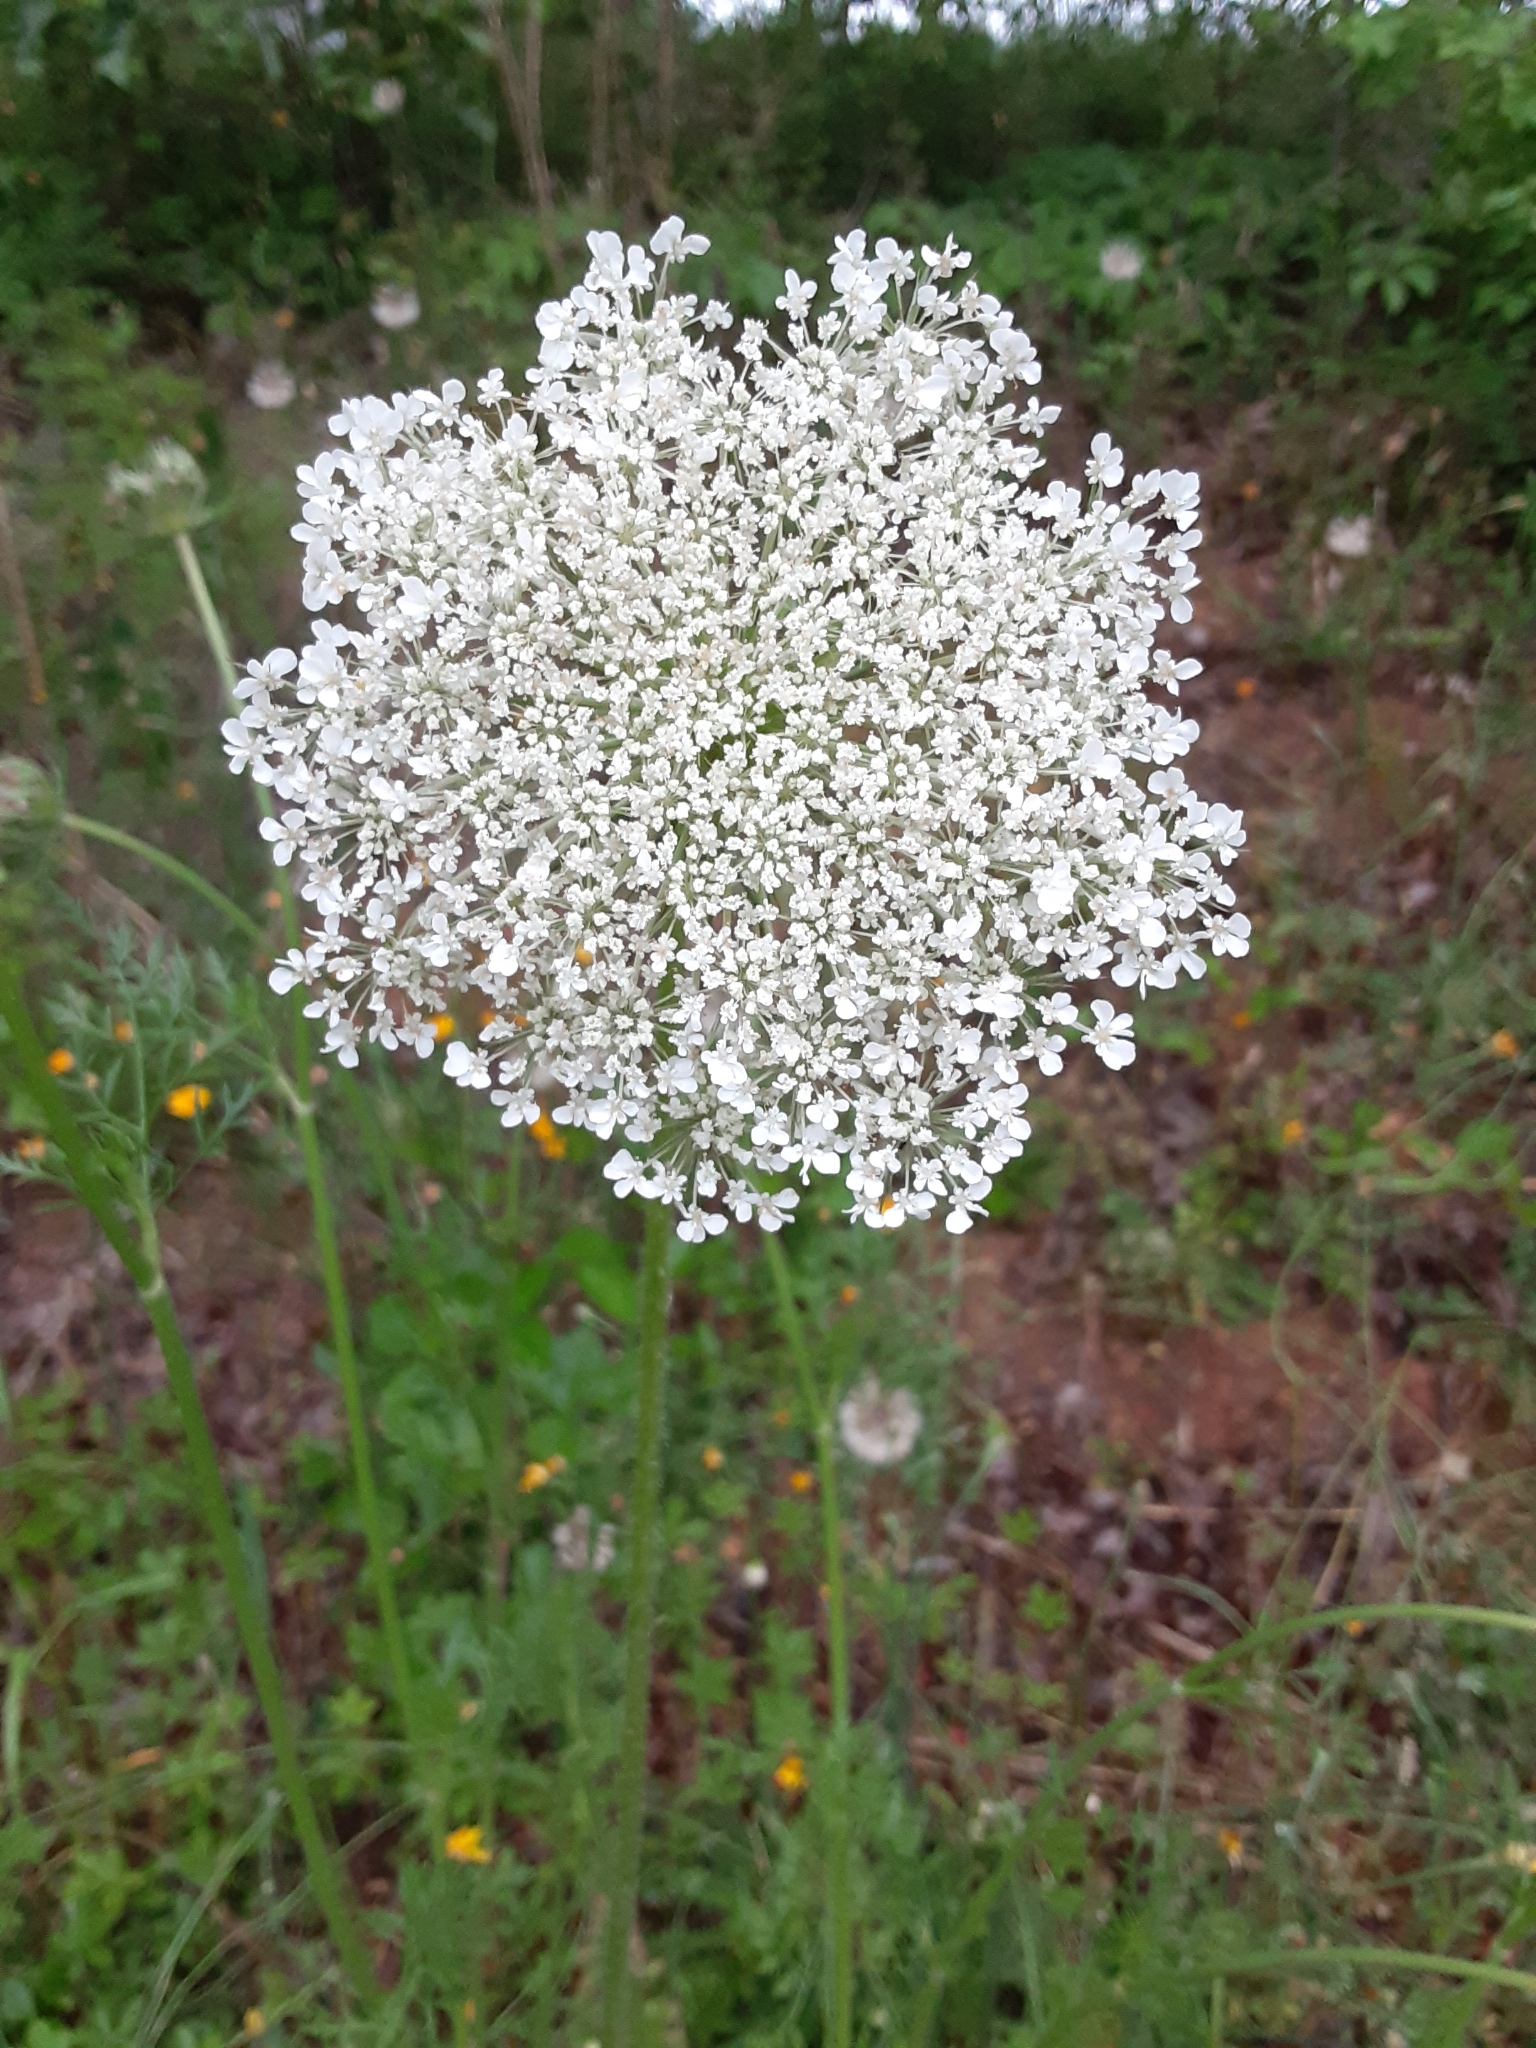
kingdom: Plantae
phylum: Tracheophyta
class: Magnoliopsida
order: Apiales
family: Apiaceae
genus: Daucus
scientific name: Daucus carota
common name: Wild carrot
